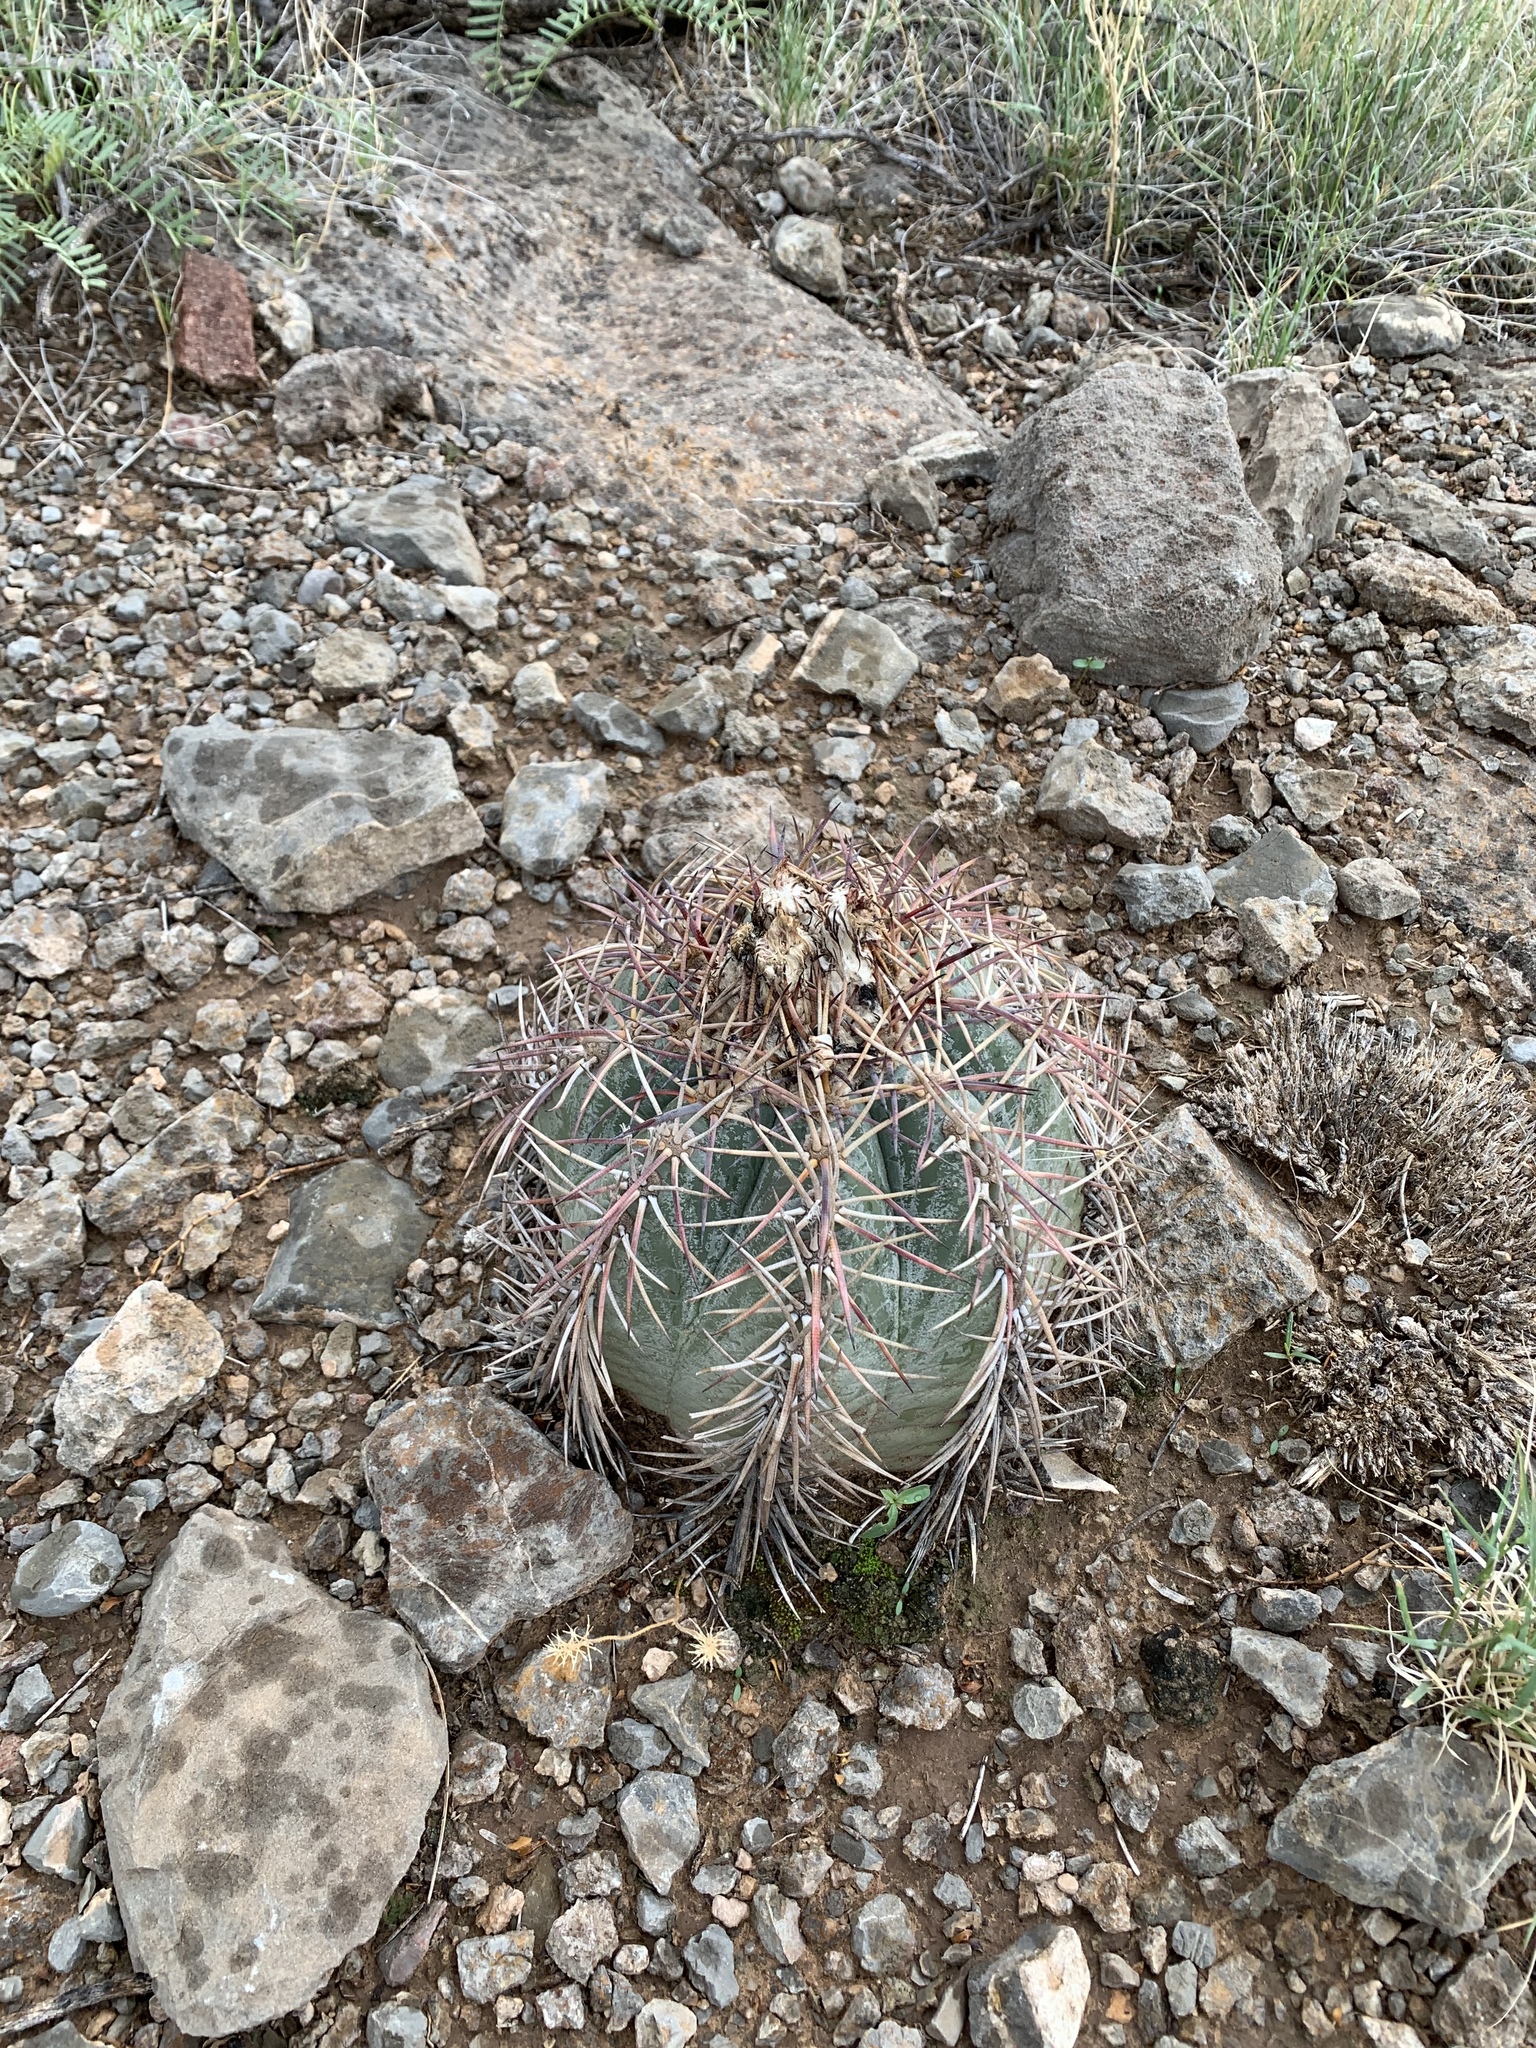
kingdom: Plantae
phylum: Tracheophyta
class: Magnoliopsida
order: Caryophyllales
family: Cactaceae
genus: Echinocactus
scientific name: Echinocactus horizonthalonius
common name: Devilshead
